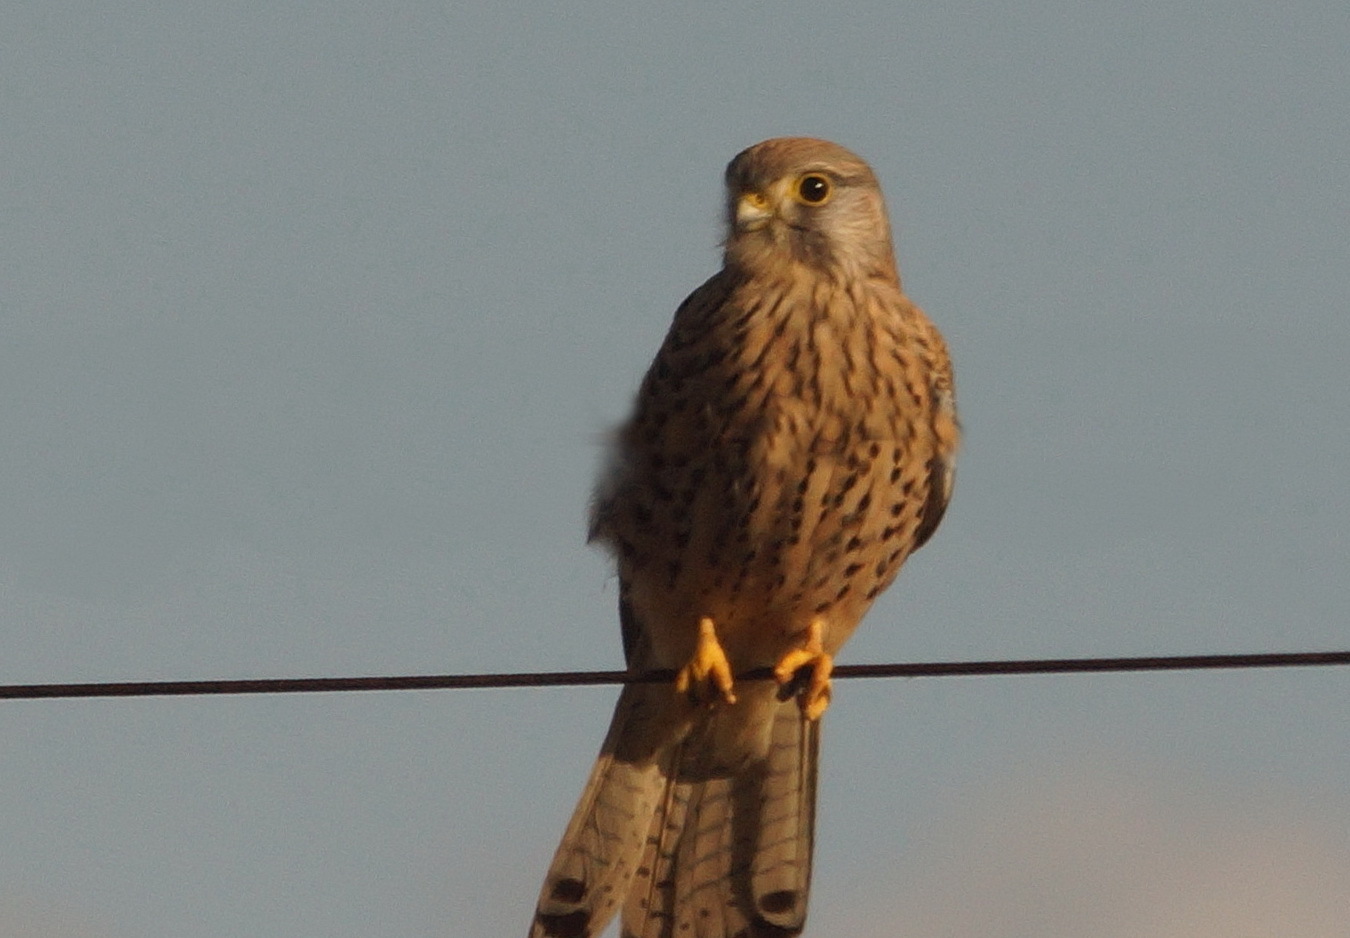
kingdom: Animalia
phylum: Chordata
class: Aves
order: Falconiformes
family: Falconidae
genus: Falco
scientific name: Falco tinnunculus
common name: Common kestrel
